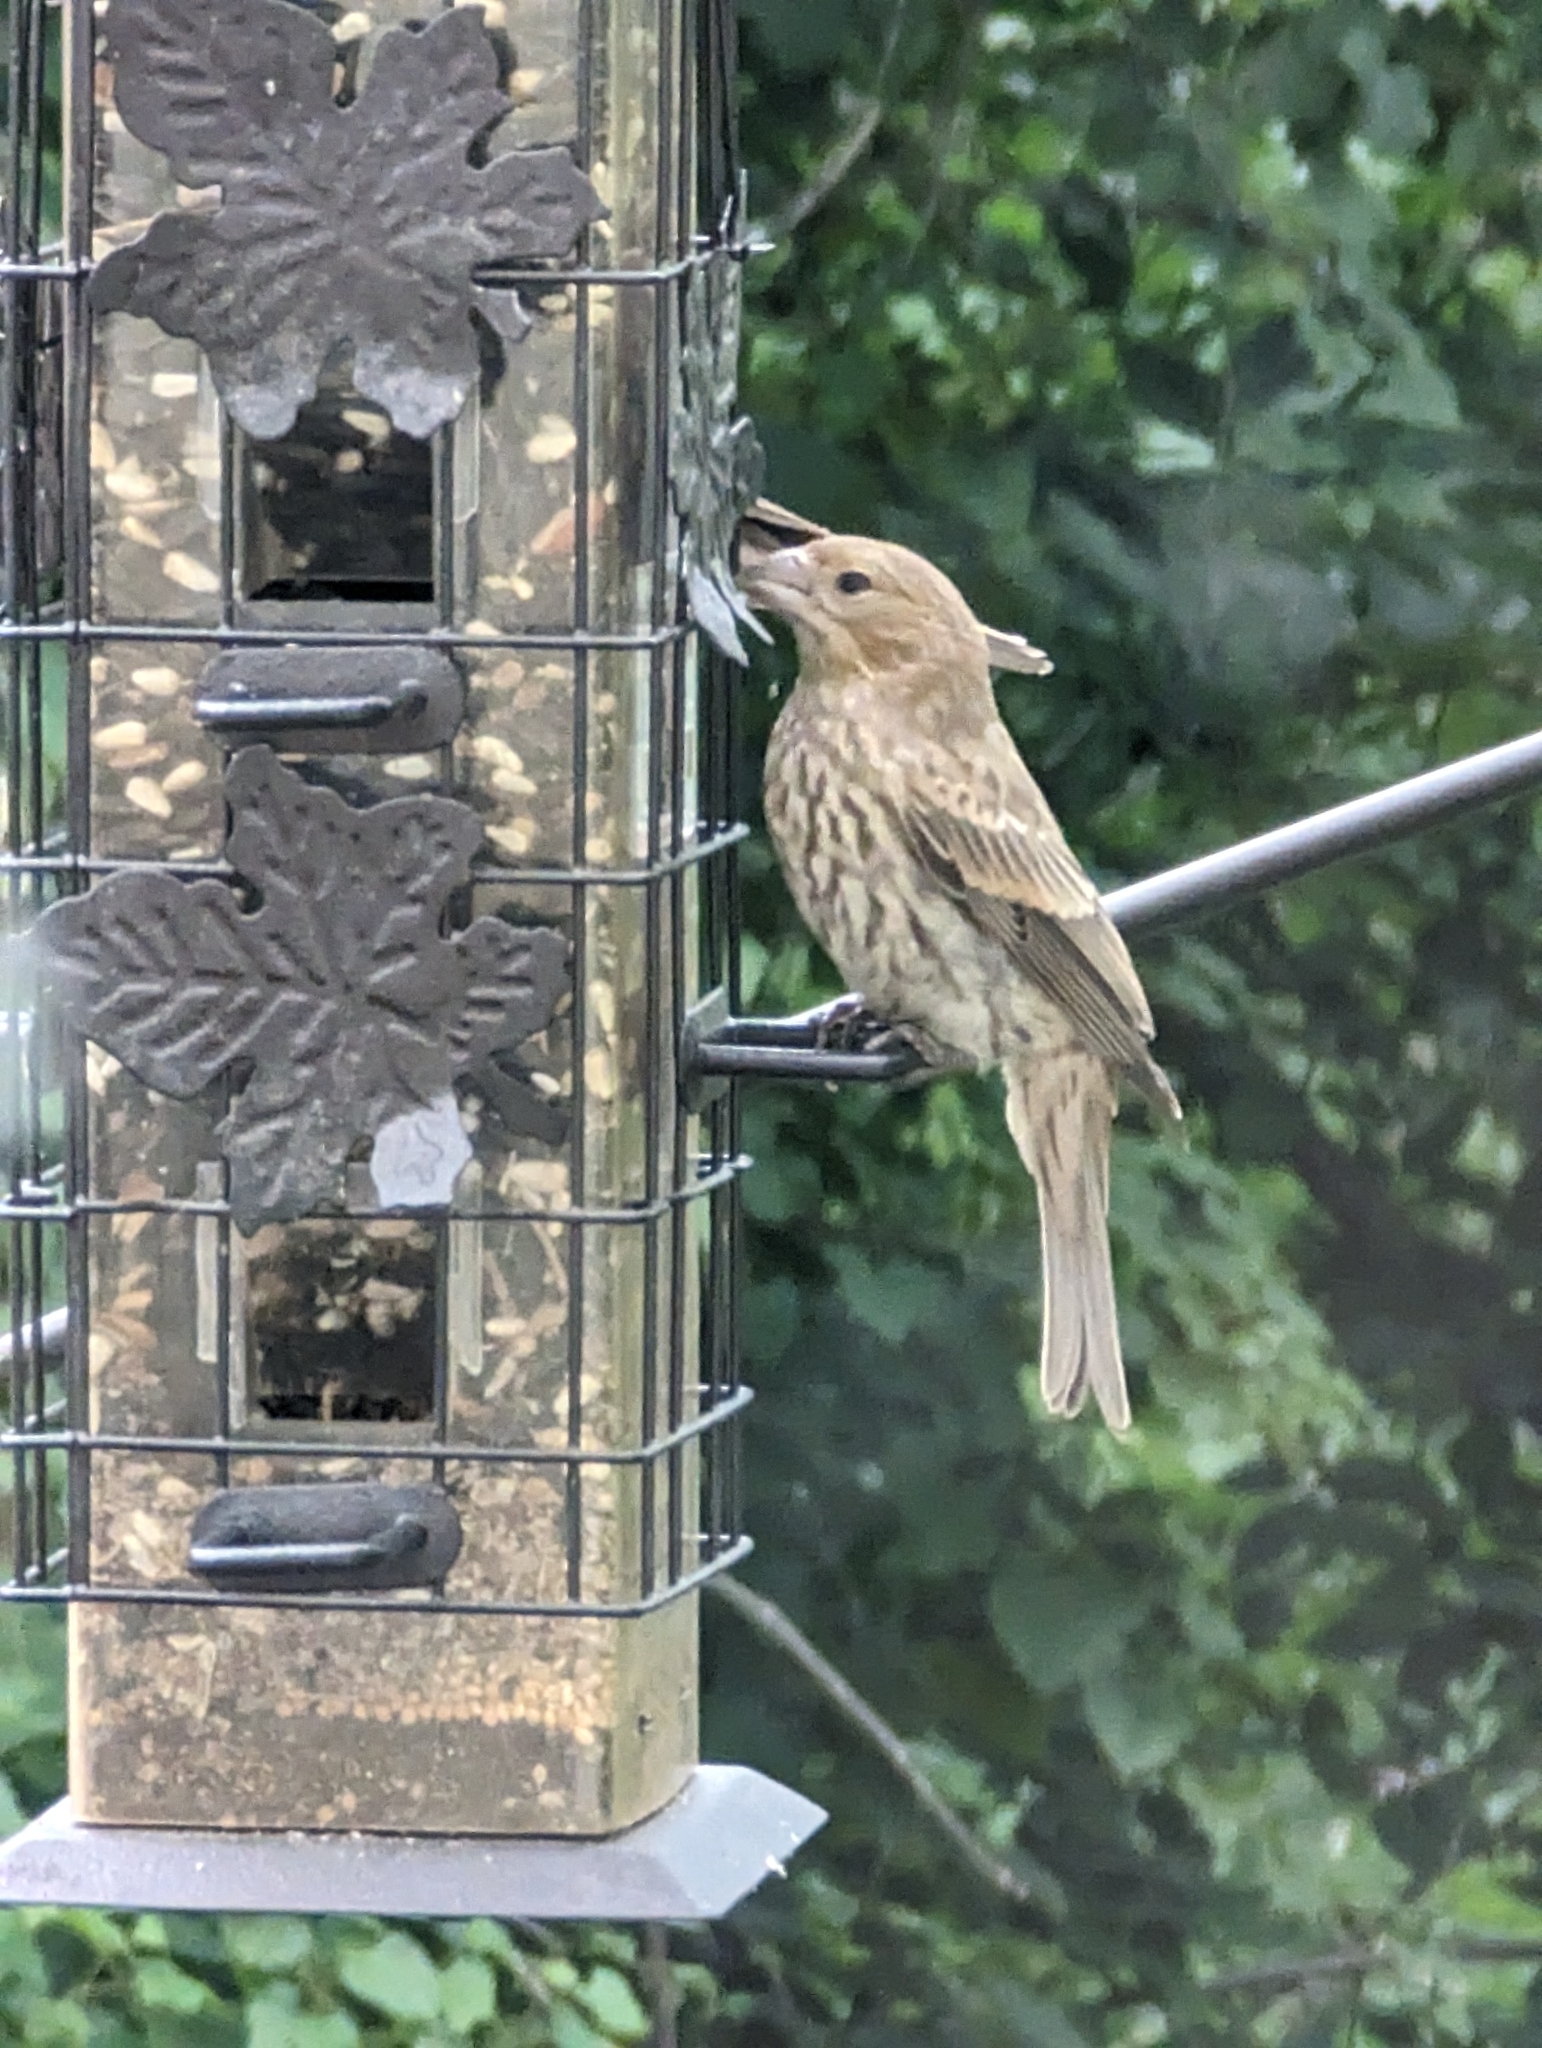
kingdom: Animalia
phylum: Chordata
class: Aves
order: Passeriformes
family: Fringillidae
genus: Haemorhous
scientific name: Haemorhous mexicanus
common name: House finch
